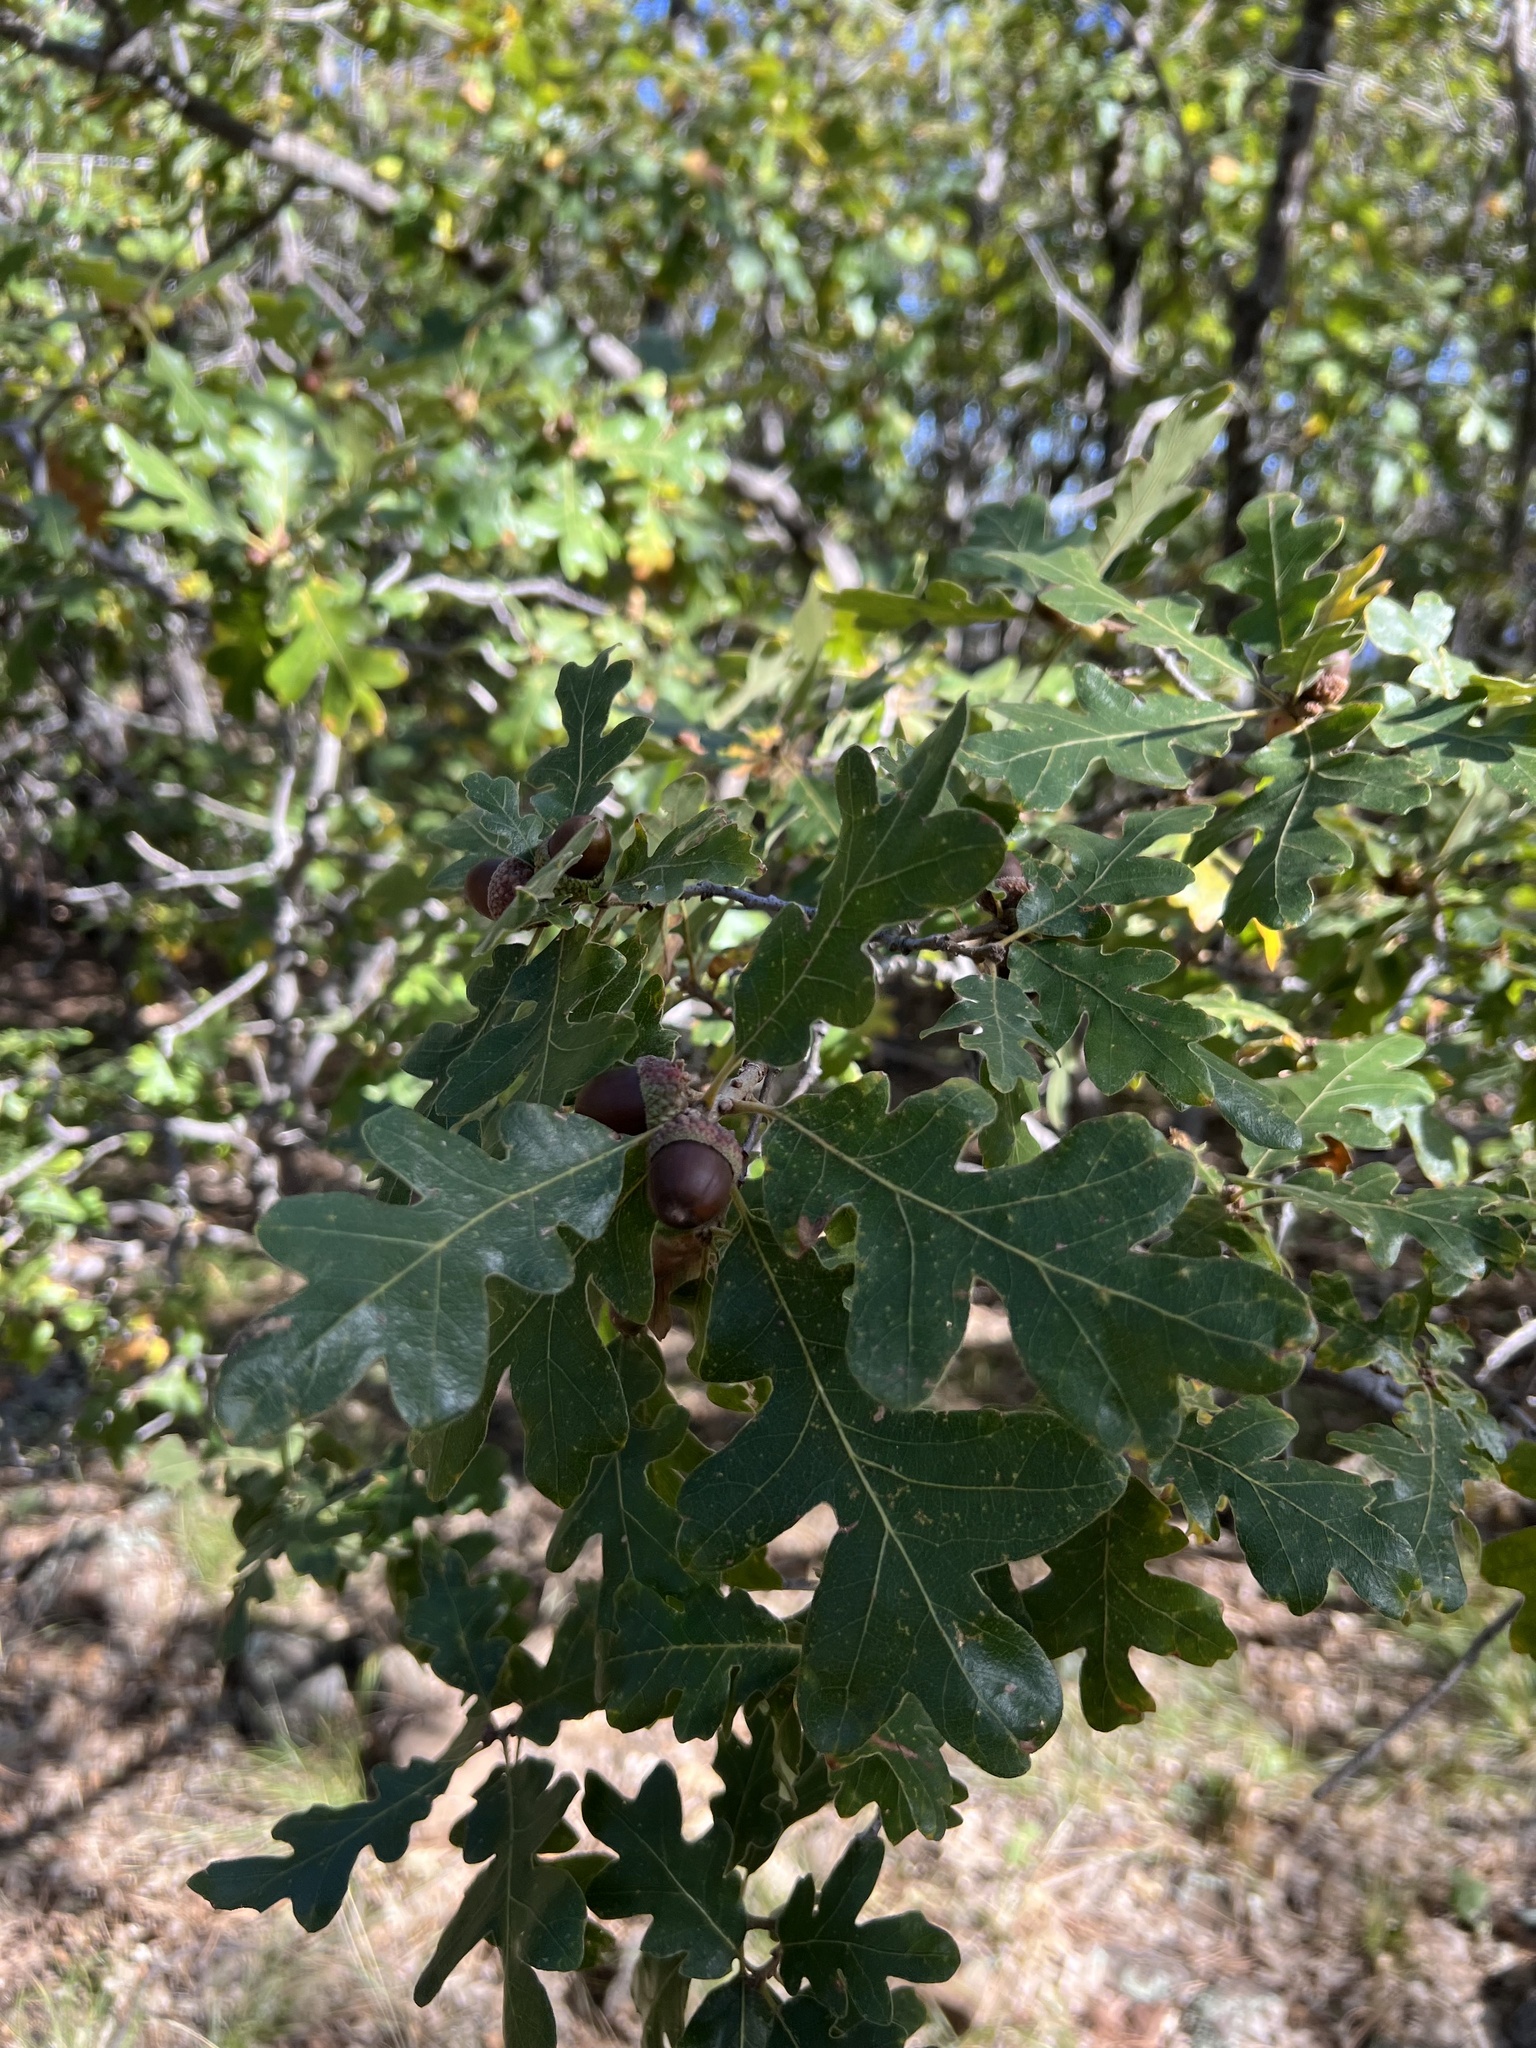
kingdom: Plantae
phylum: Tracheophyta
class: Magnoliopsida
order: Fagales
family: Fagaceae
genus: Quercus
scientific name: Quercus gambelii
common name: Gambel oak
